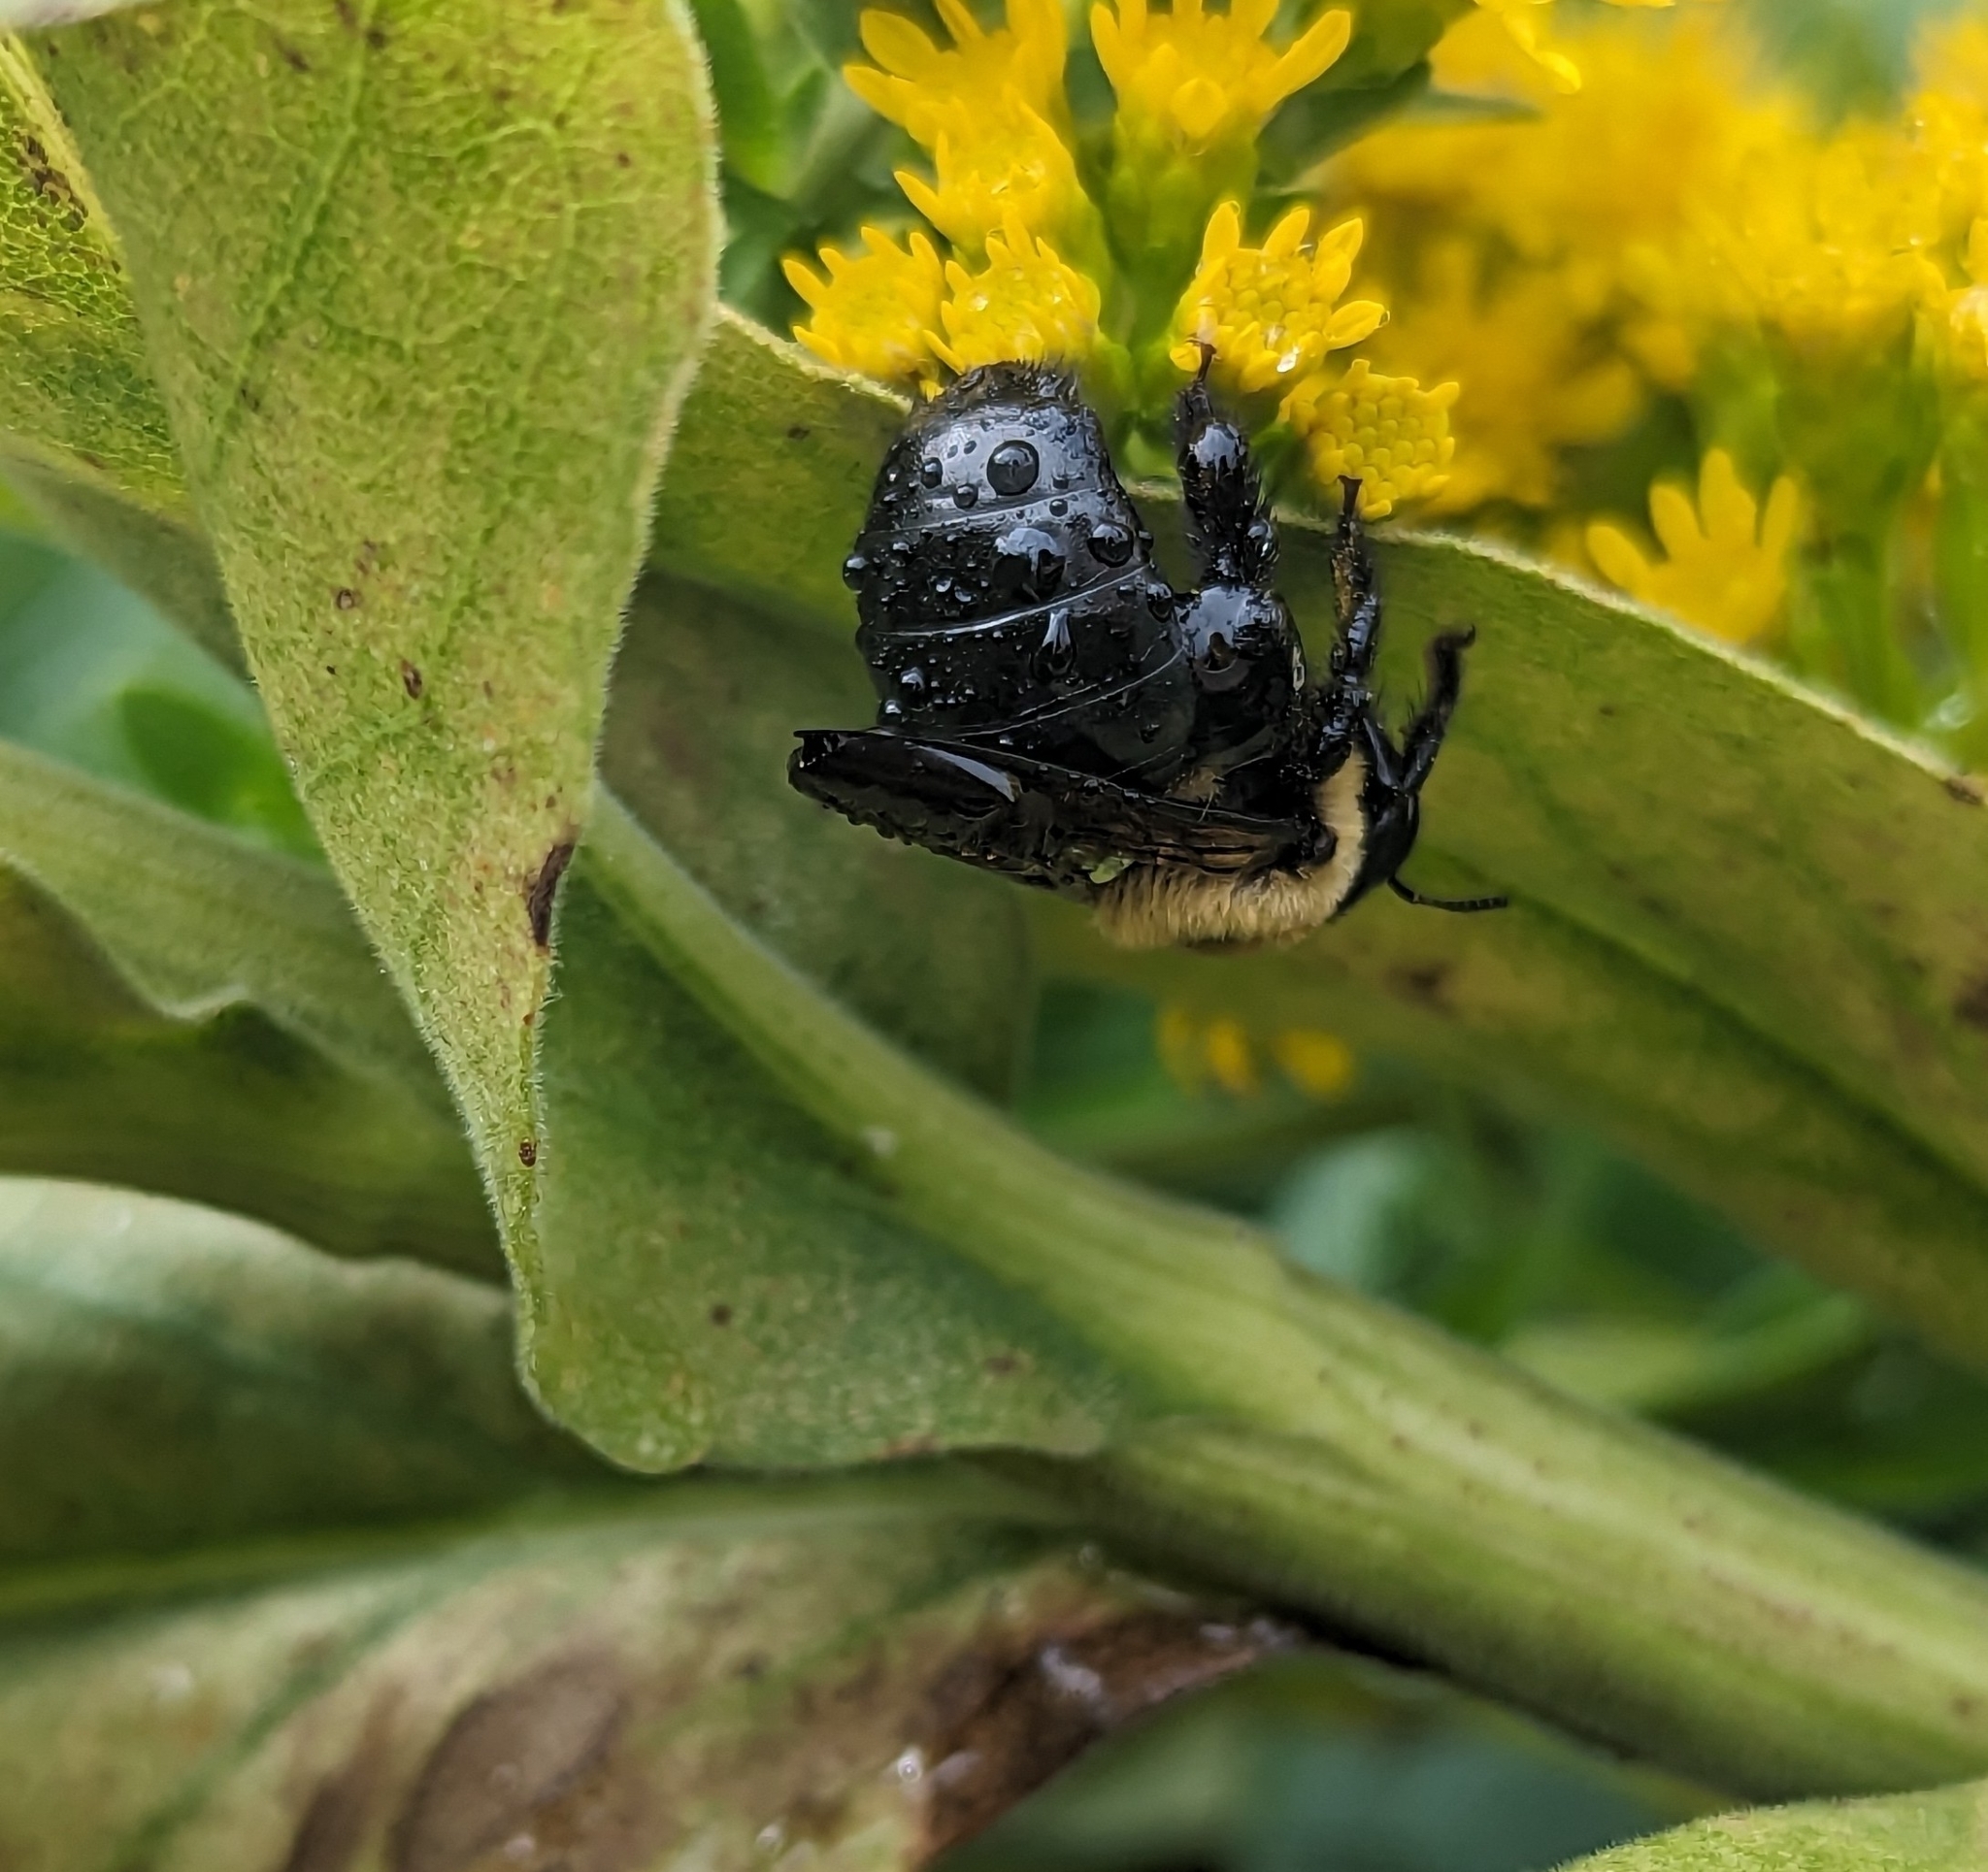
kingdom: Animalia
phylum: Arthropoda
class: Insecta
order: Hymenoptera
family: Apidae
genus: Xylocopa
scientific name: Xylocopa virginica
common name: Carpenter bee
